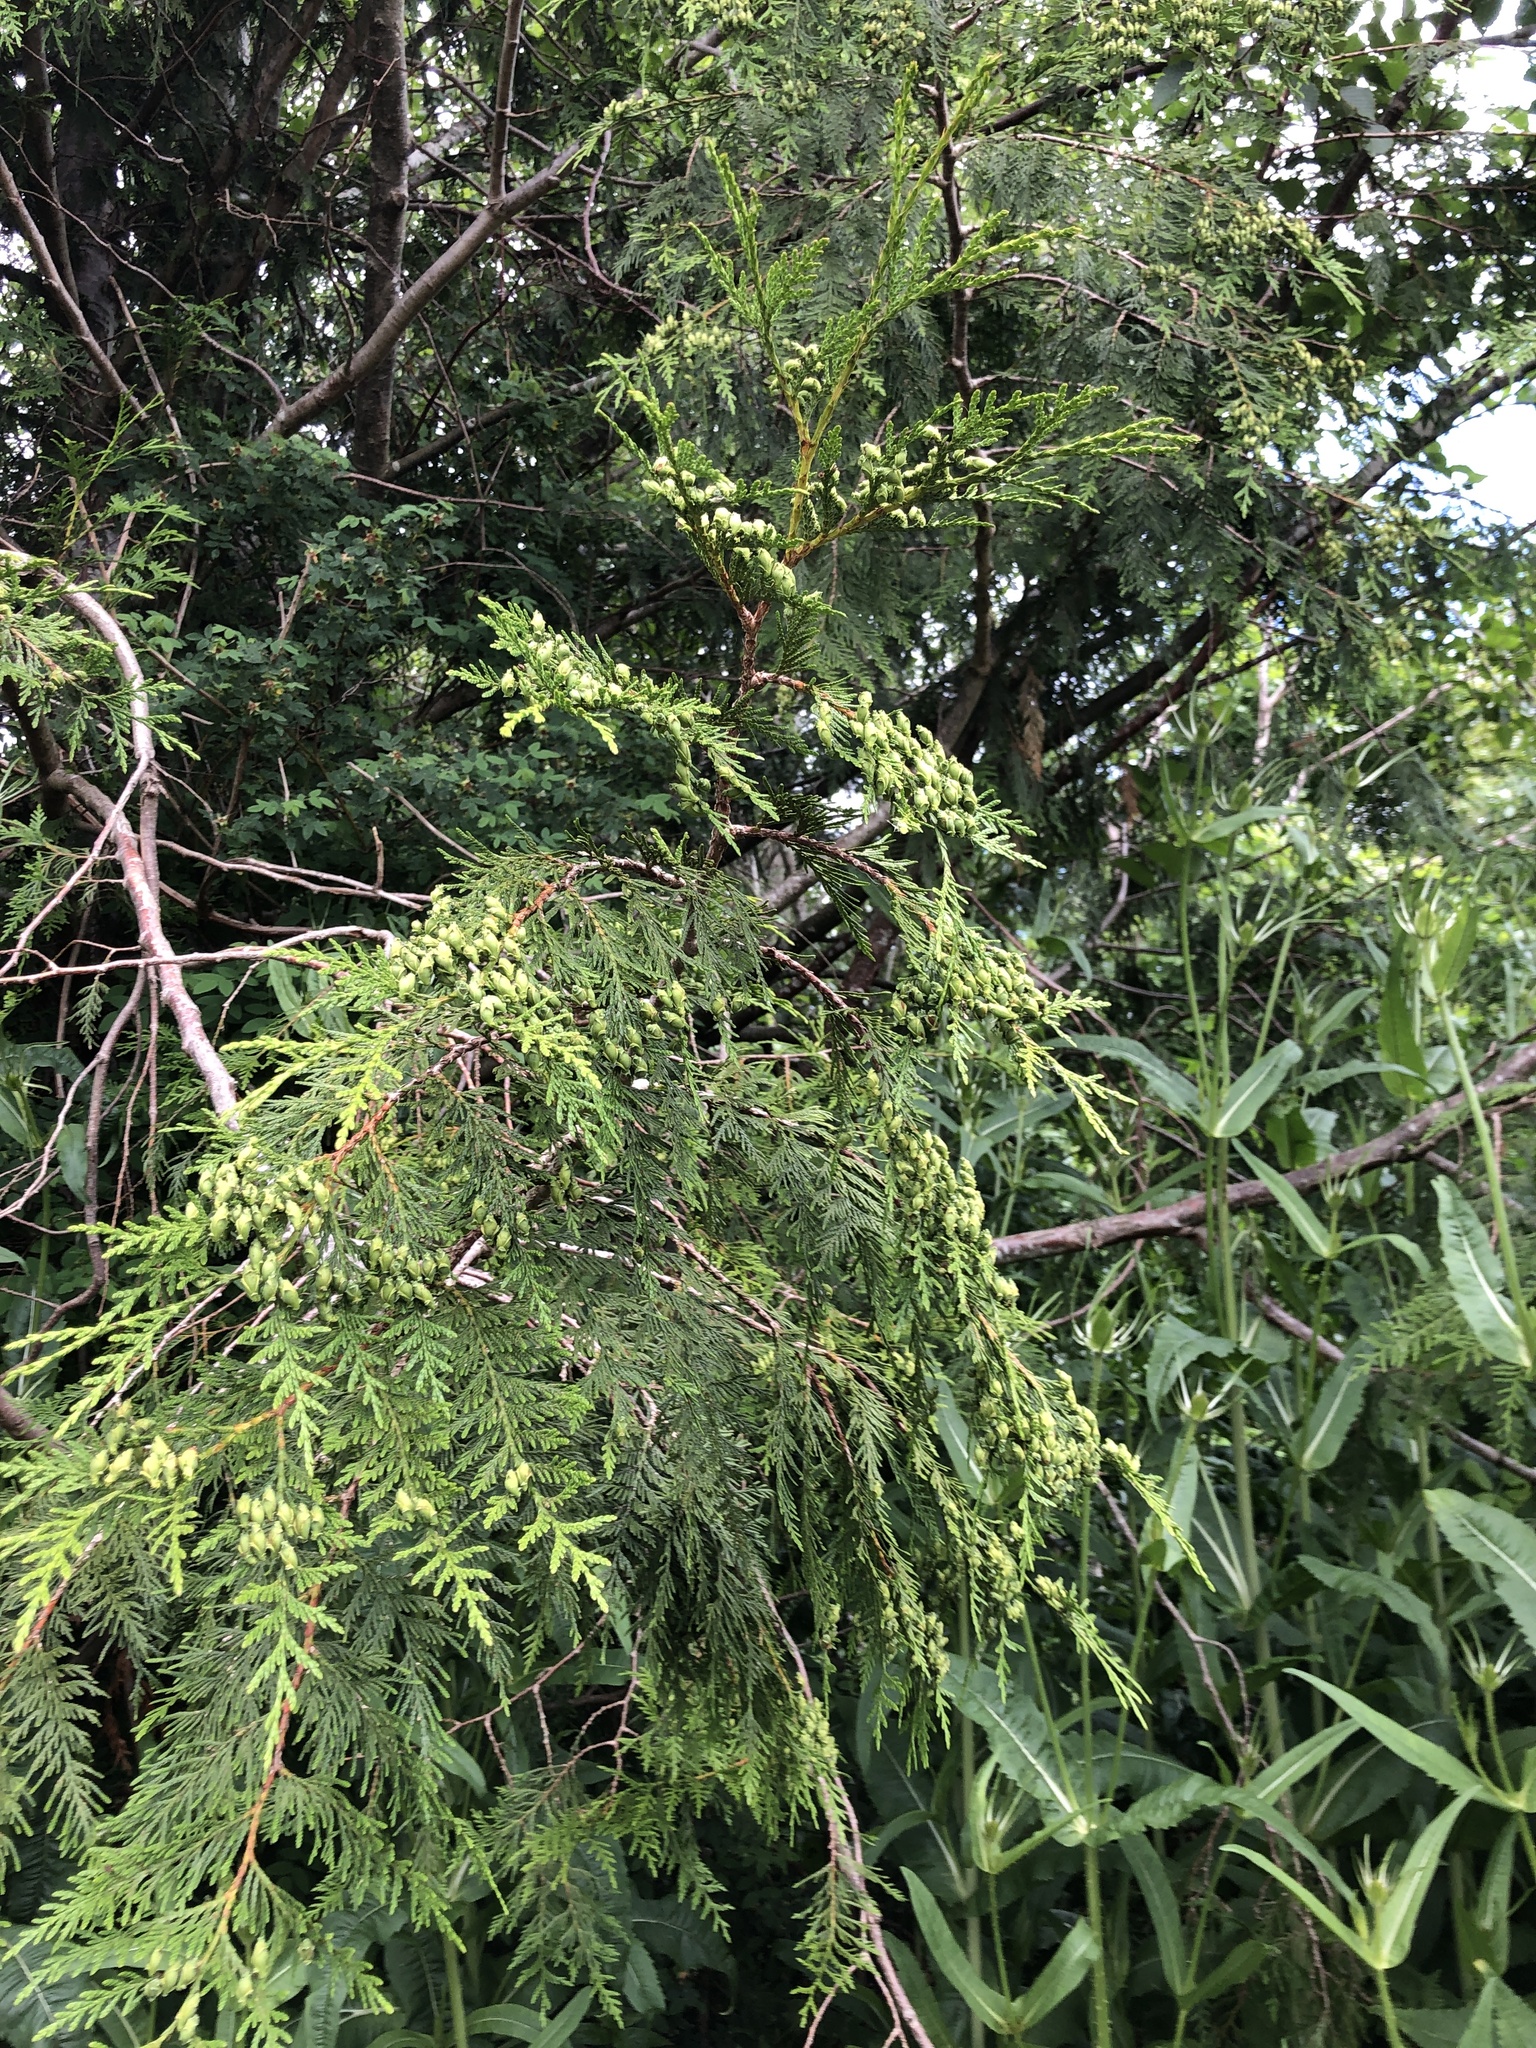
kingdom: Plantae
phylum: Tracheophyta
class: Pinopsida
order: Pinales
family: Cupressaceae
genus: Thuja
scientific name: Thuja plicata
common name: Western red-cedar
